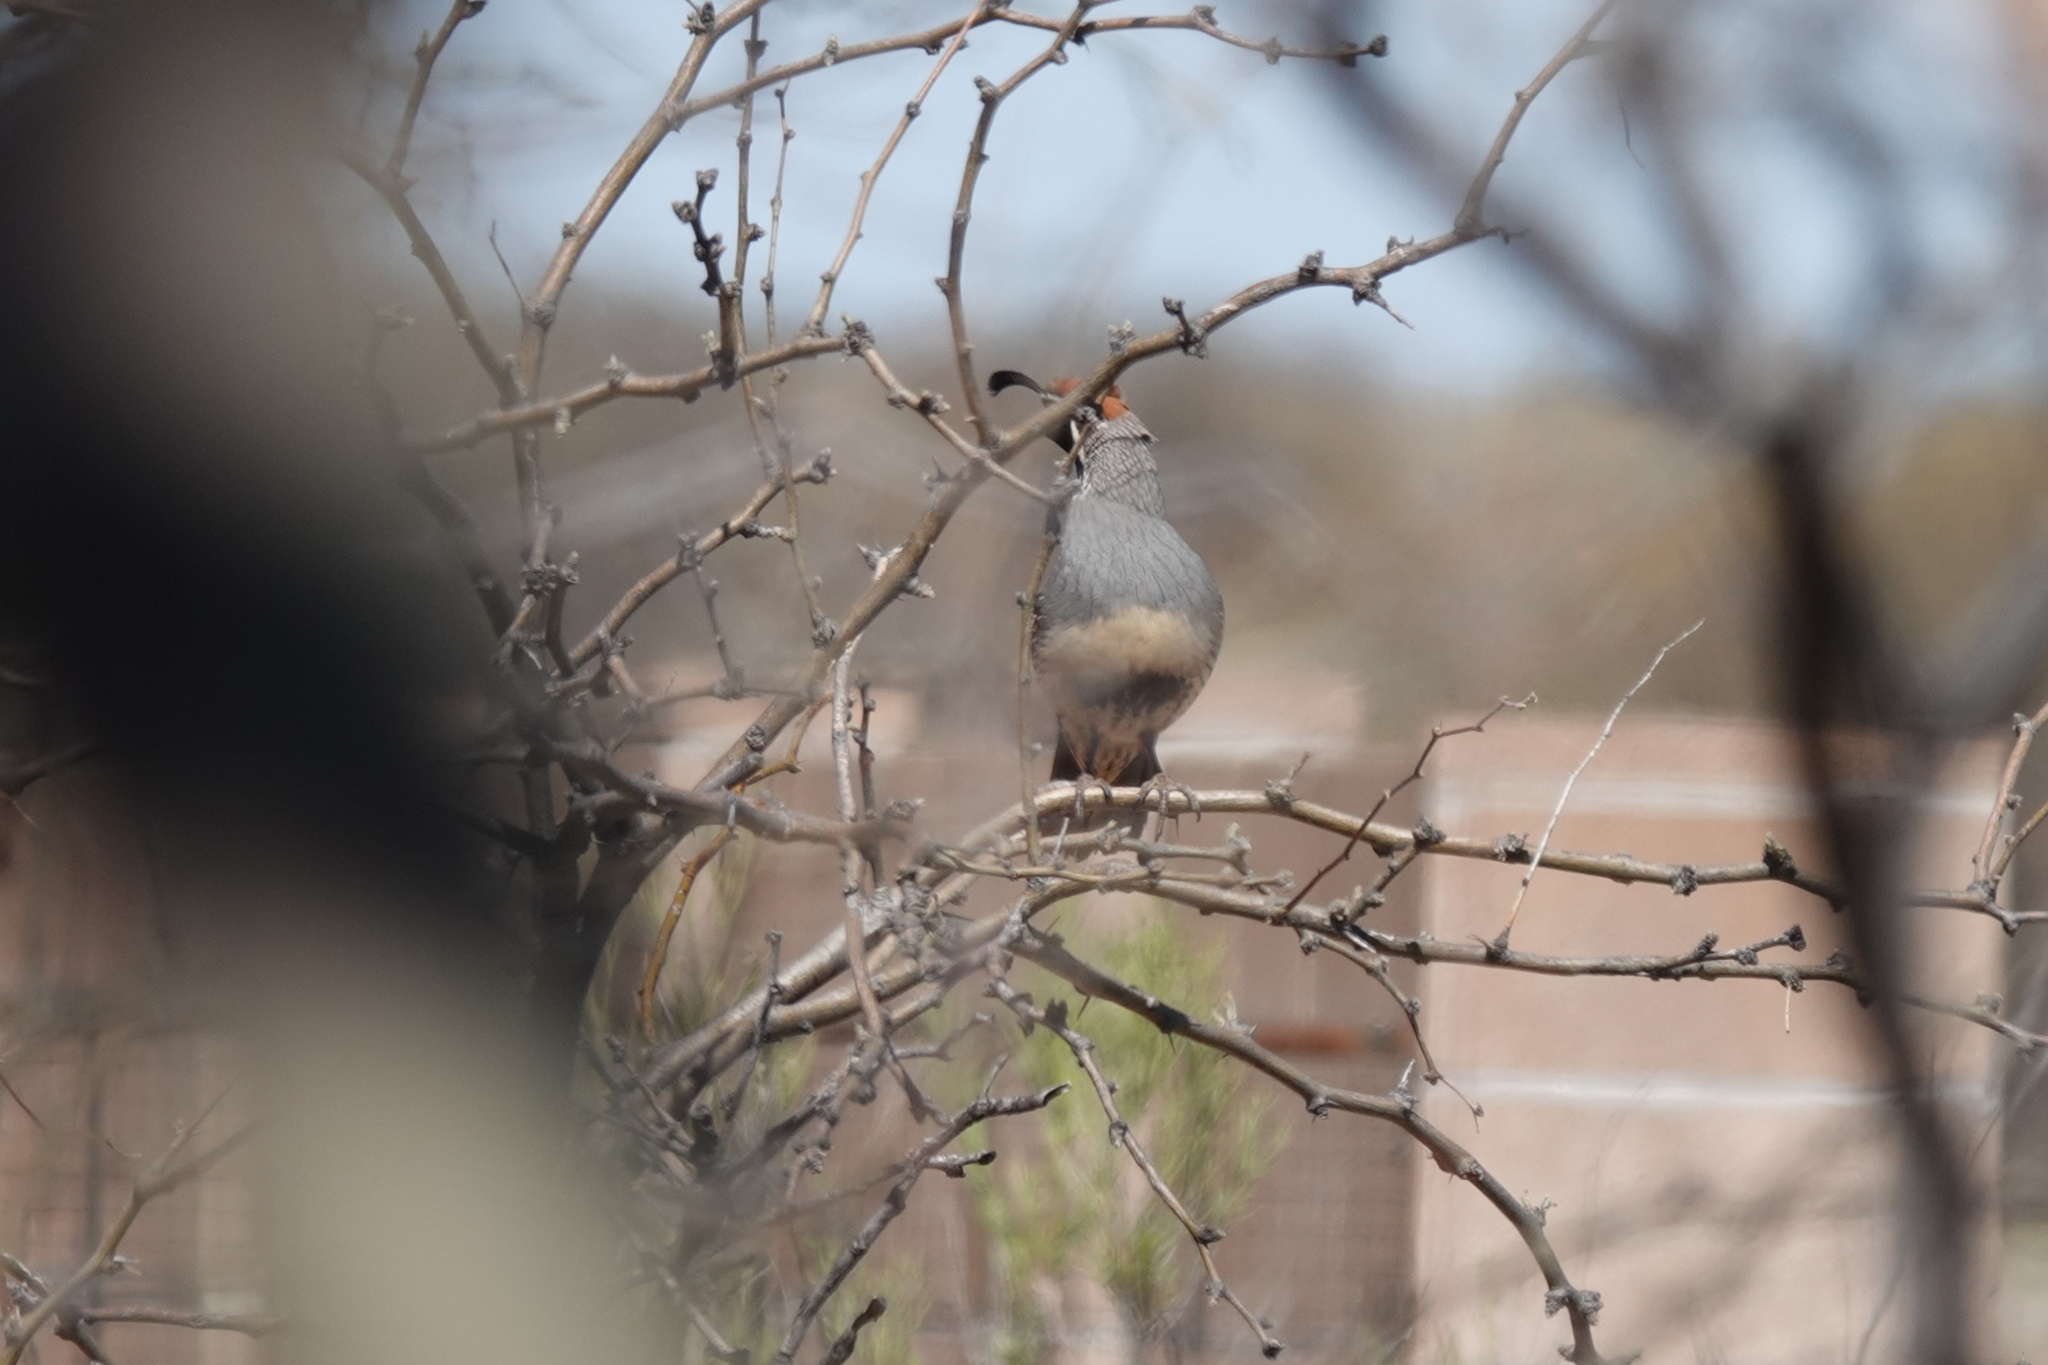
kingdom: Animalia
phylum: Chordata
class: Aves
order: Galliformes
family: Odontophoridae
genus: Callipepla
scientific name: Callipepla gambelii
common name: Gambel's quail
